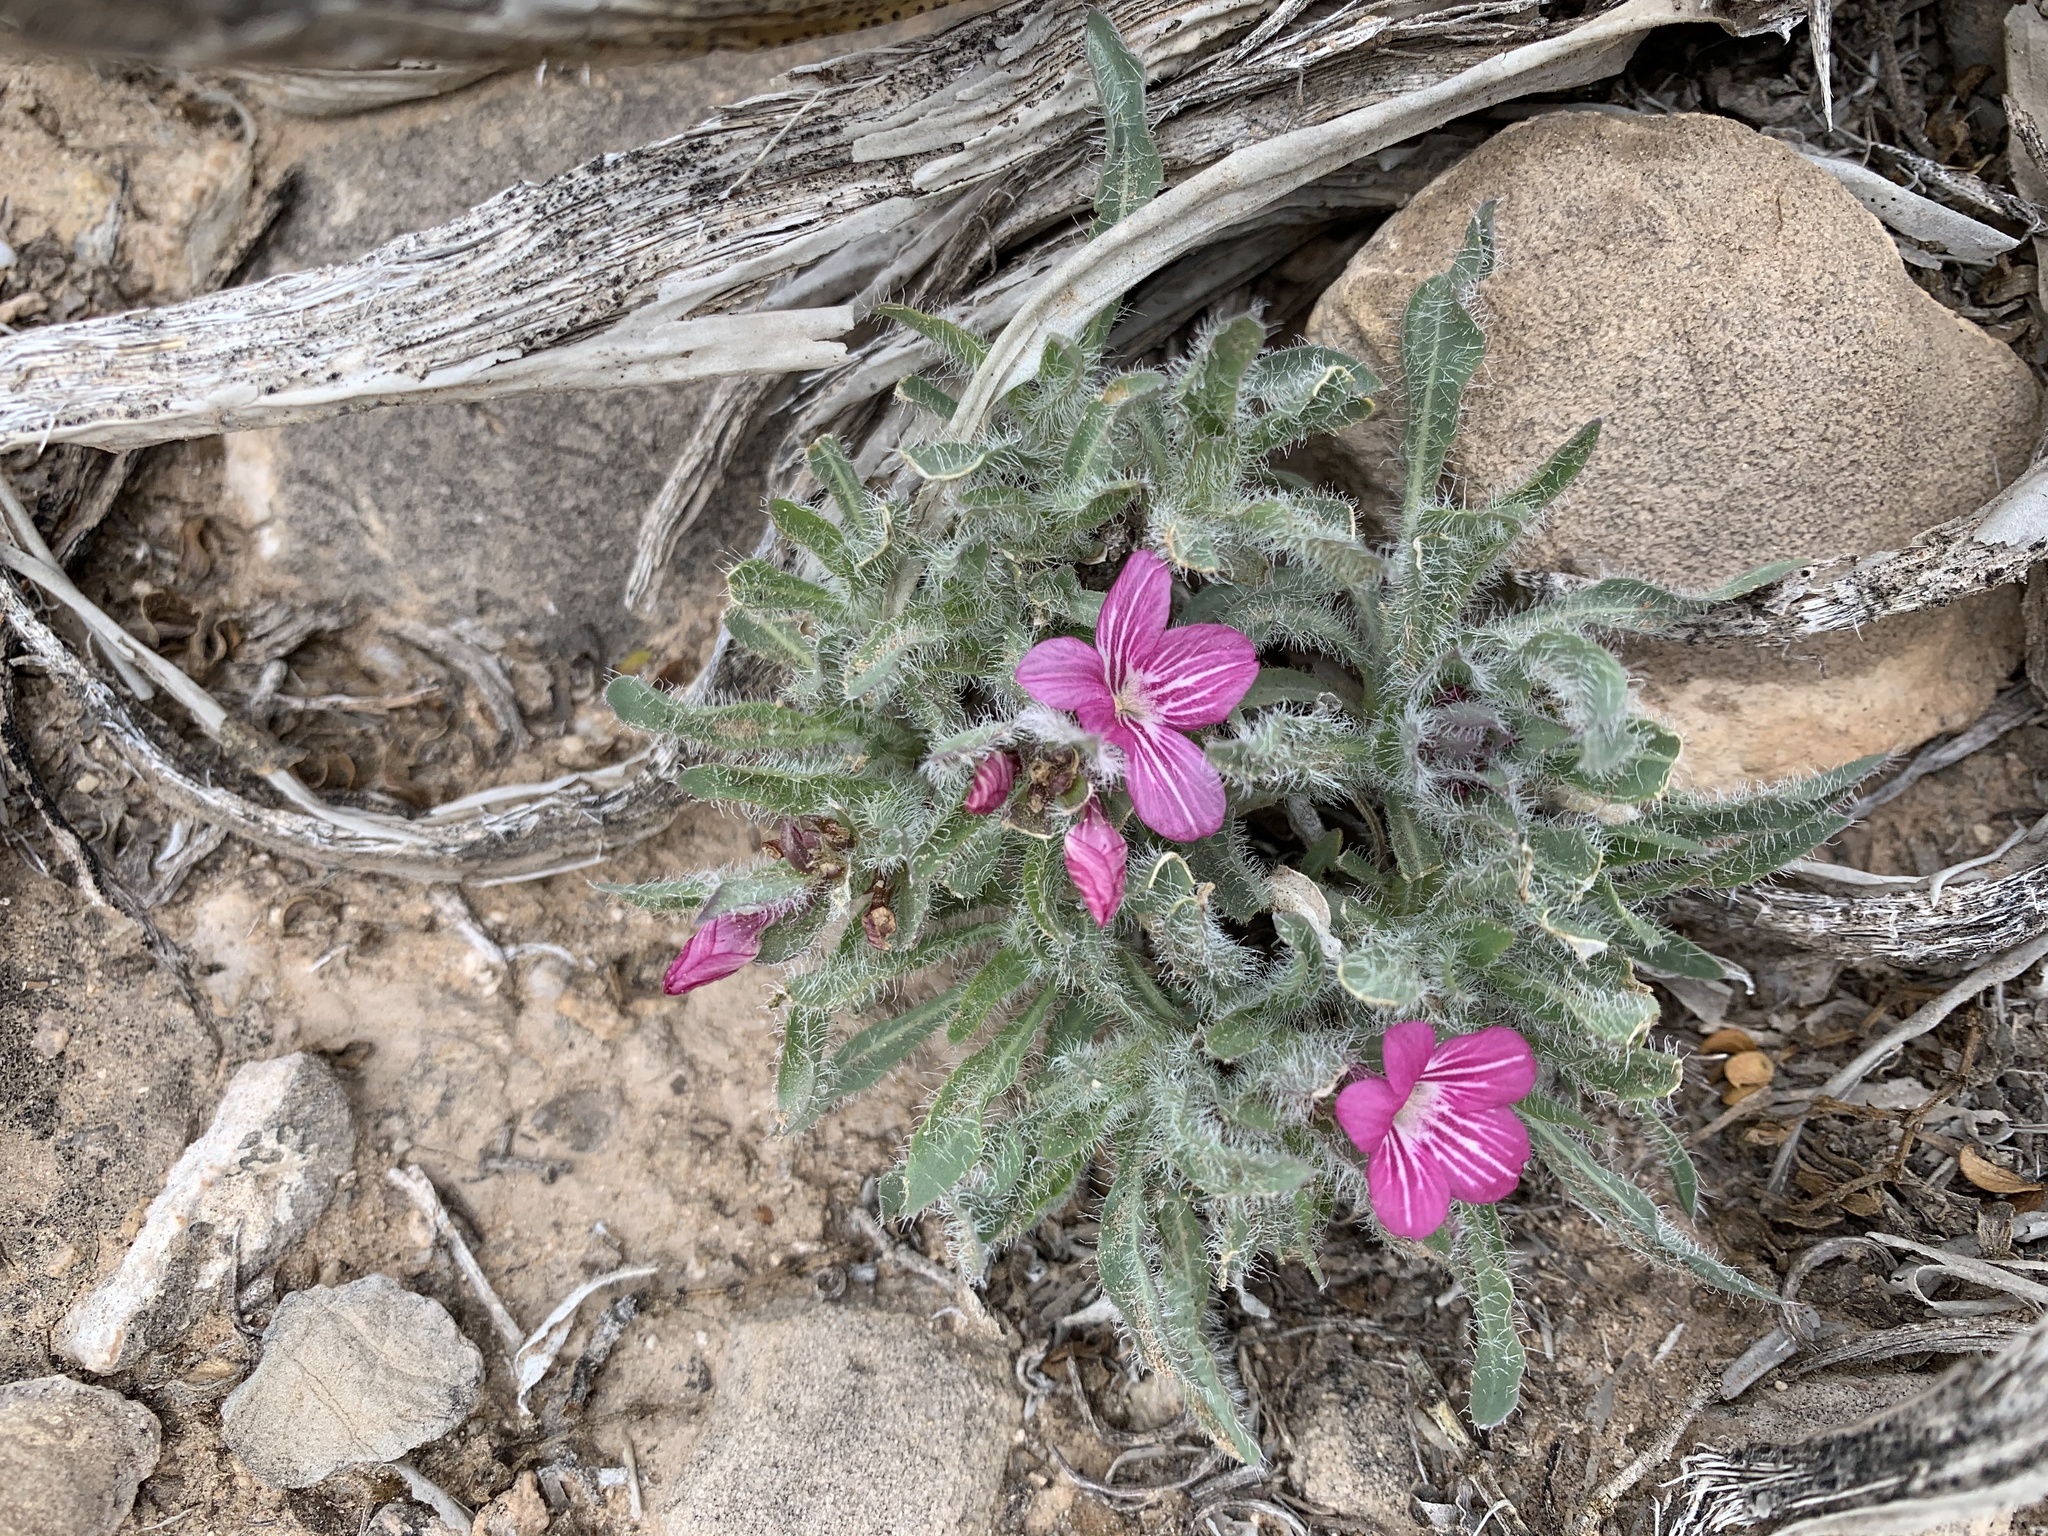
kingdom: Plantae
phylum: Tracheophyta
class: Magnoliopsida
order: Lamiales
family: Acanthaceae
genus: Stenandrium
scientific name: Stenandrium barbatum
